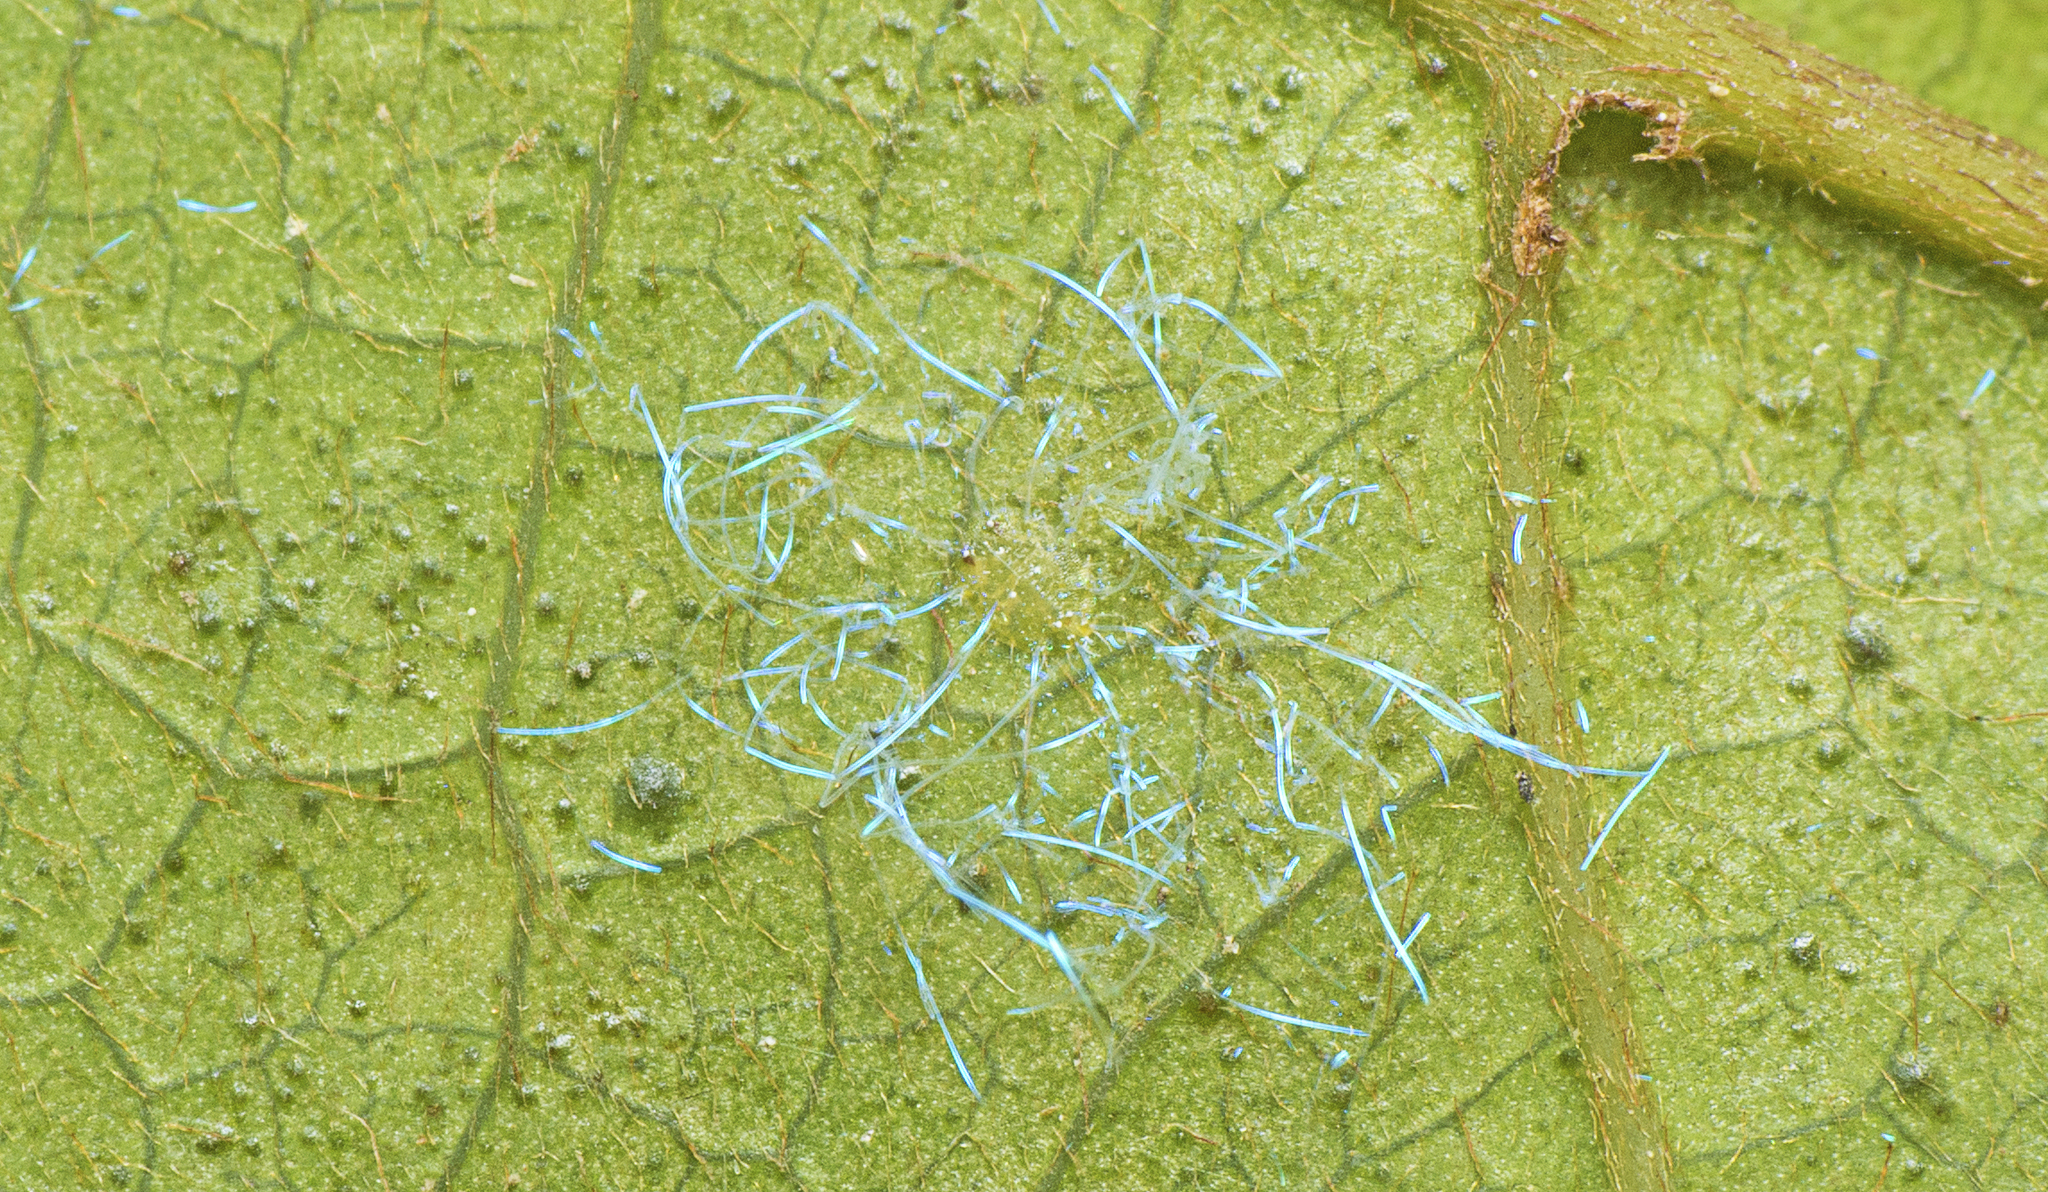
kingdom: Animalia
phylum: Arthropoda
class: Insecta
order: Hemiptera
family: Aleyrodidae
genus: Dialeuropora
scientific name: Dialeuropora decempuncta
